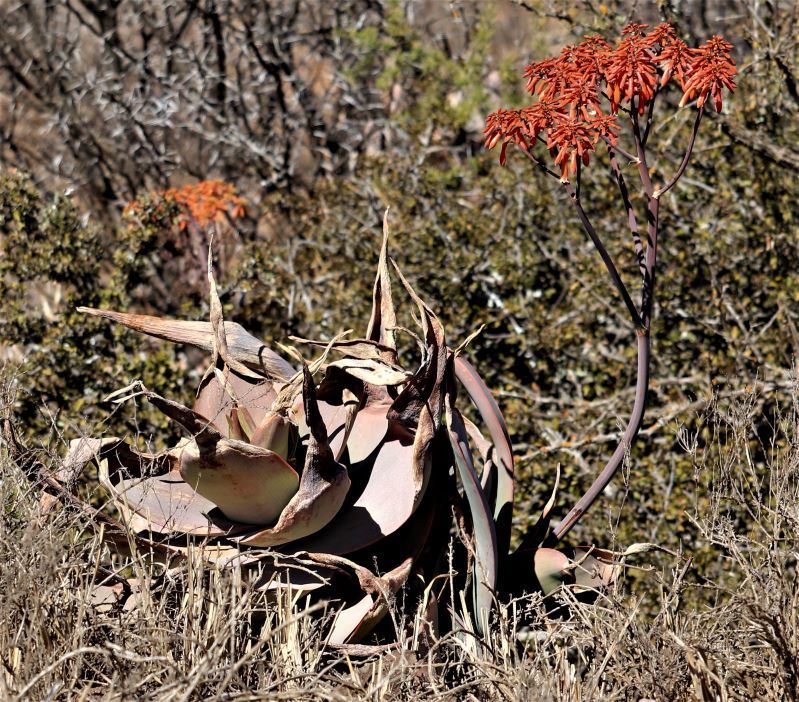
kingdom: Plantae
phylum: Tracheophyta
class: Liliopsida
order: Asparagales
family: Asphodelaceae
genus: Aloe
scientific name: Aloe striata
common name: Coral aloe
